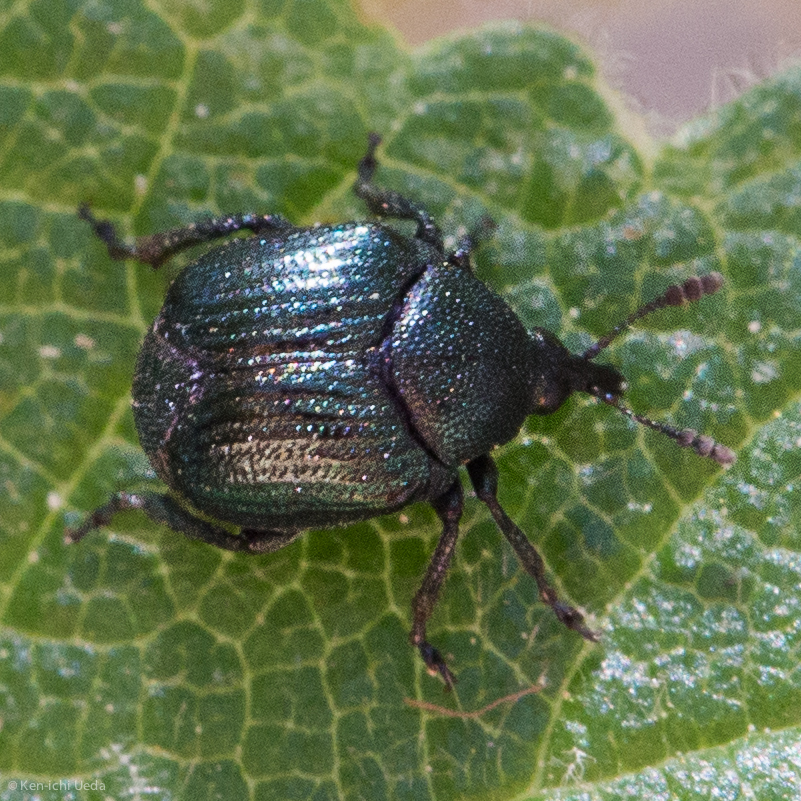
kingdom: Animalia
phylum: Arthropoda
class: Insecta
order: Coleoptera
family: Attelabidae
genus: Pterocolus
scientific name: Pterocolus ovatus
